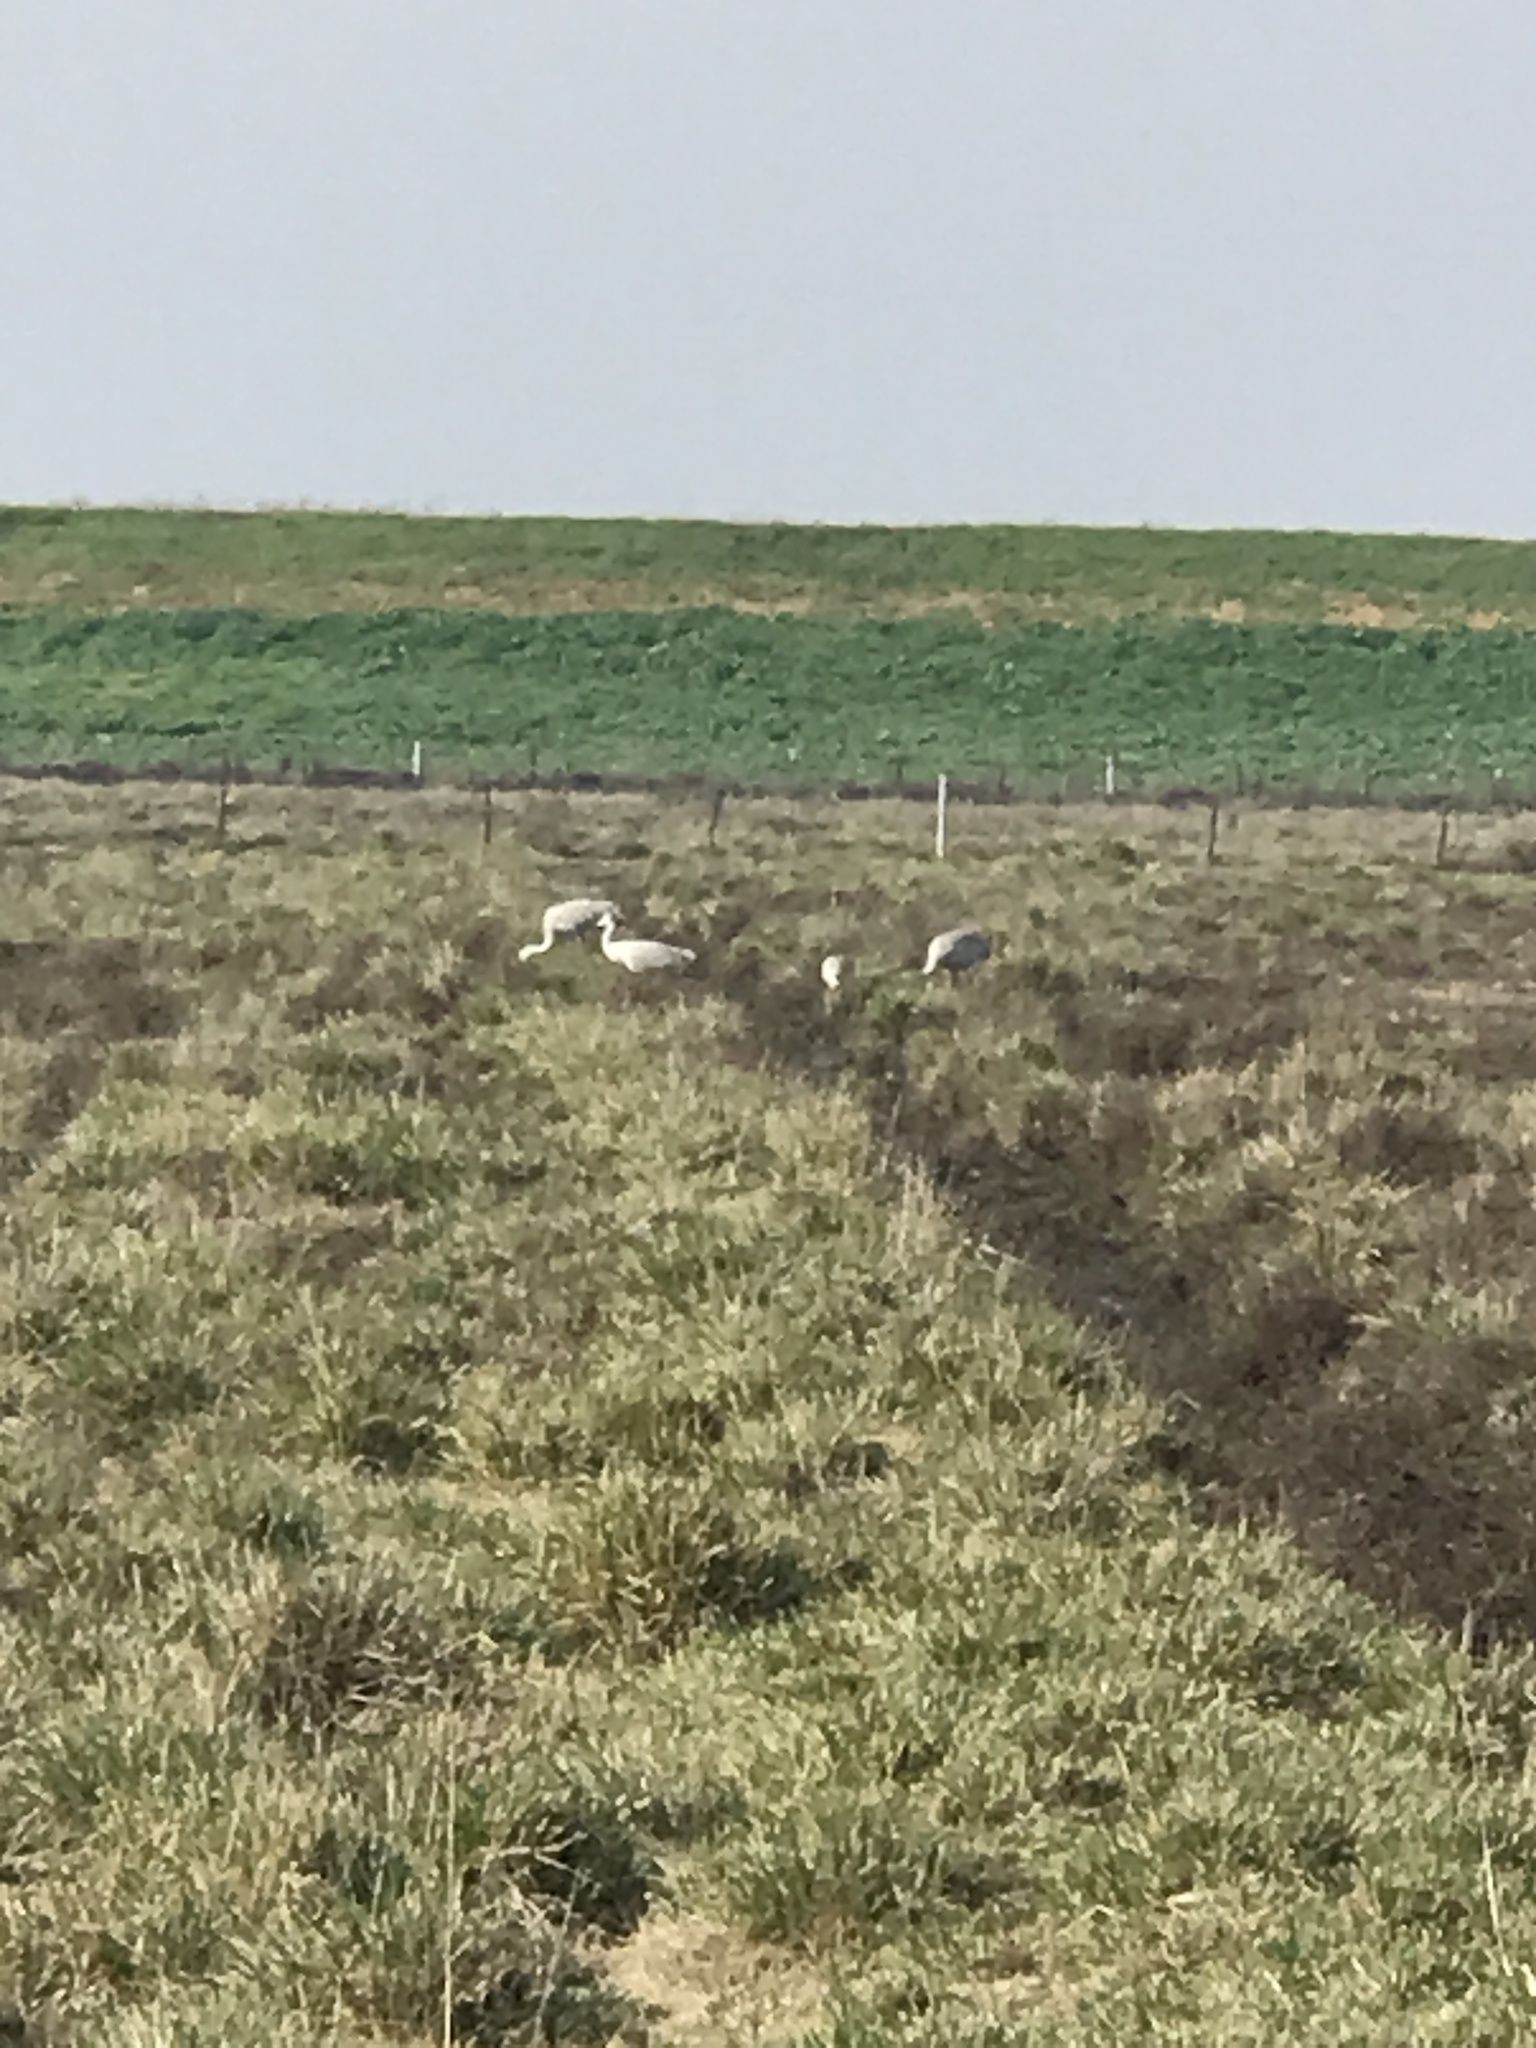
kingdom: Animalia
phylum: Chordata
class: Aves
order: Gruiformes
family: Gruidae
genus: Grus
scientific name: Grus canadensis
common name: Sandhill crane
